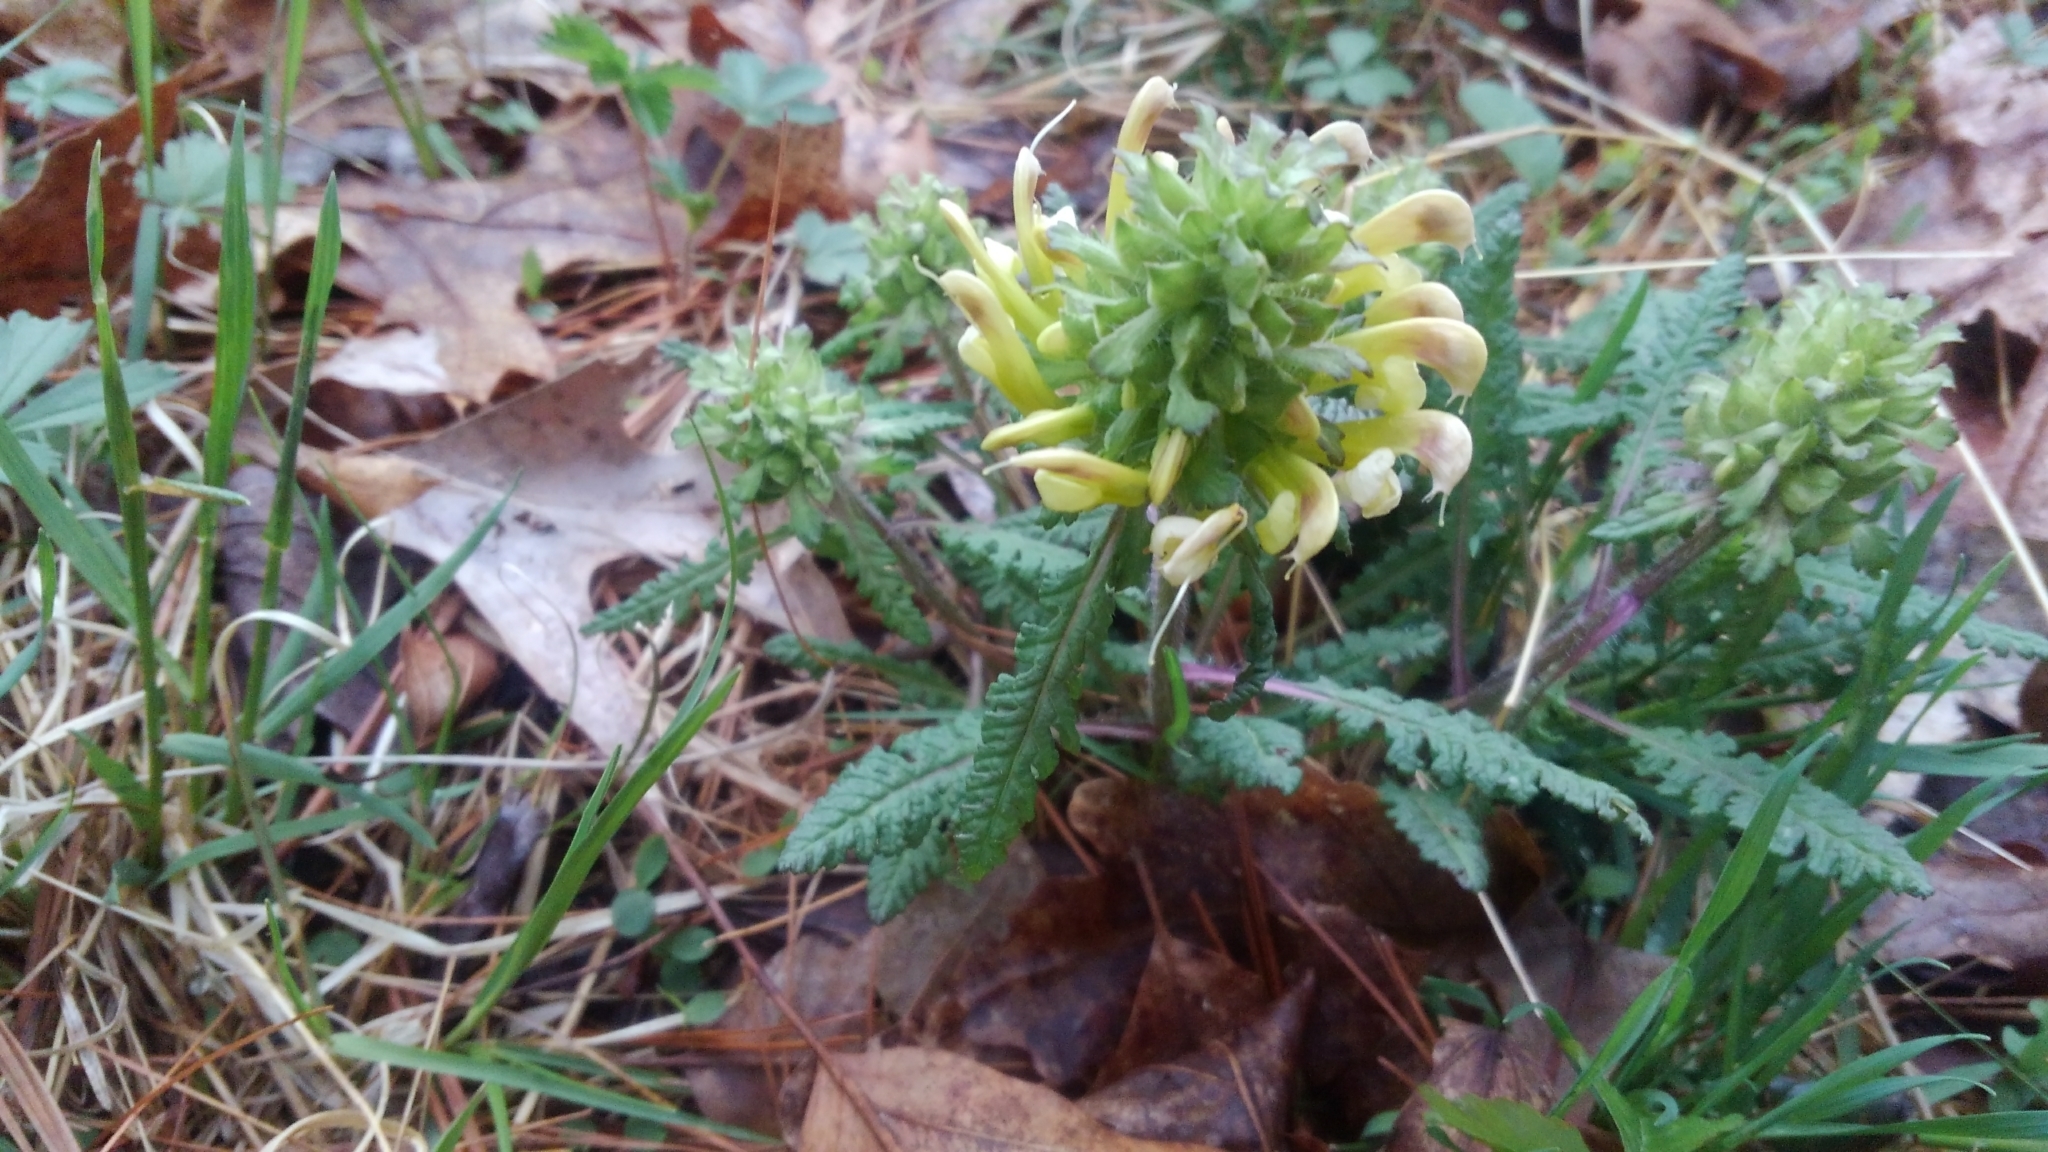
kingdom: Plantae
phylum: Tracheophyta
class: Magnoliopsida
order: Lamiales
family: Orobanchaceae
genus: Pedicularis
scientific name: Pedicularis canadensis
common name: Early lousewort
